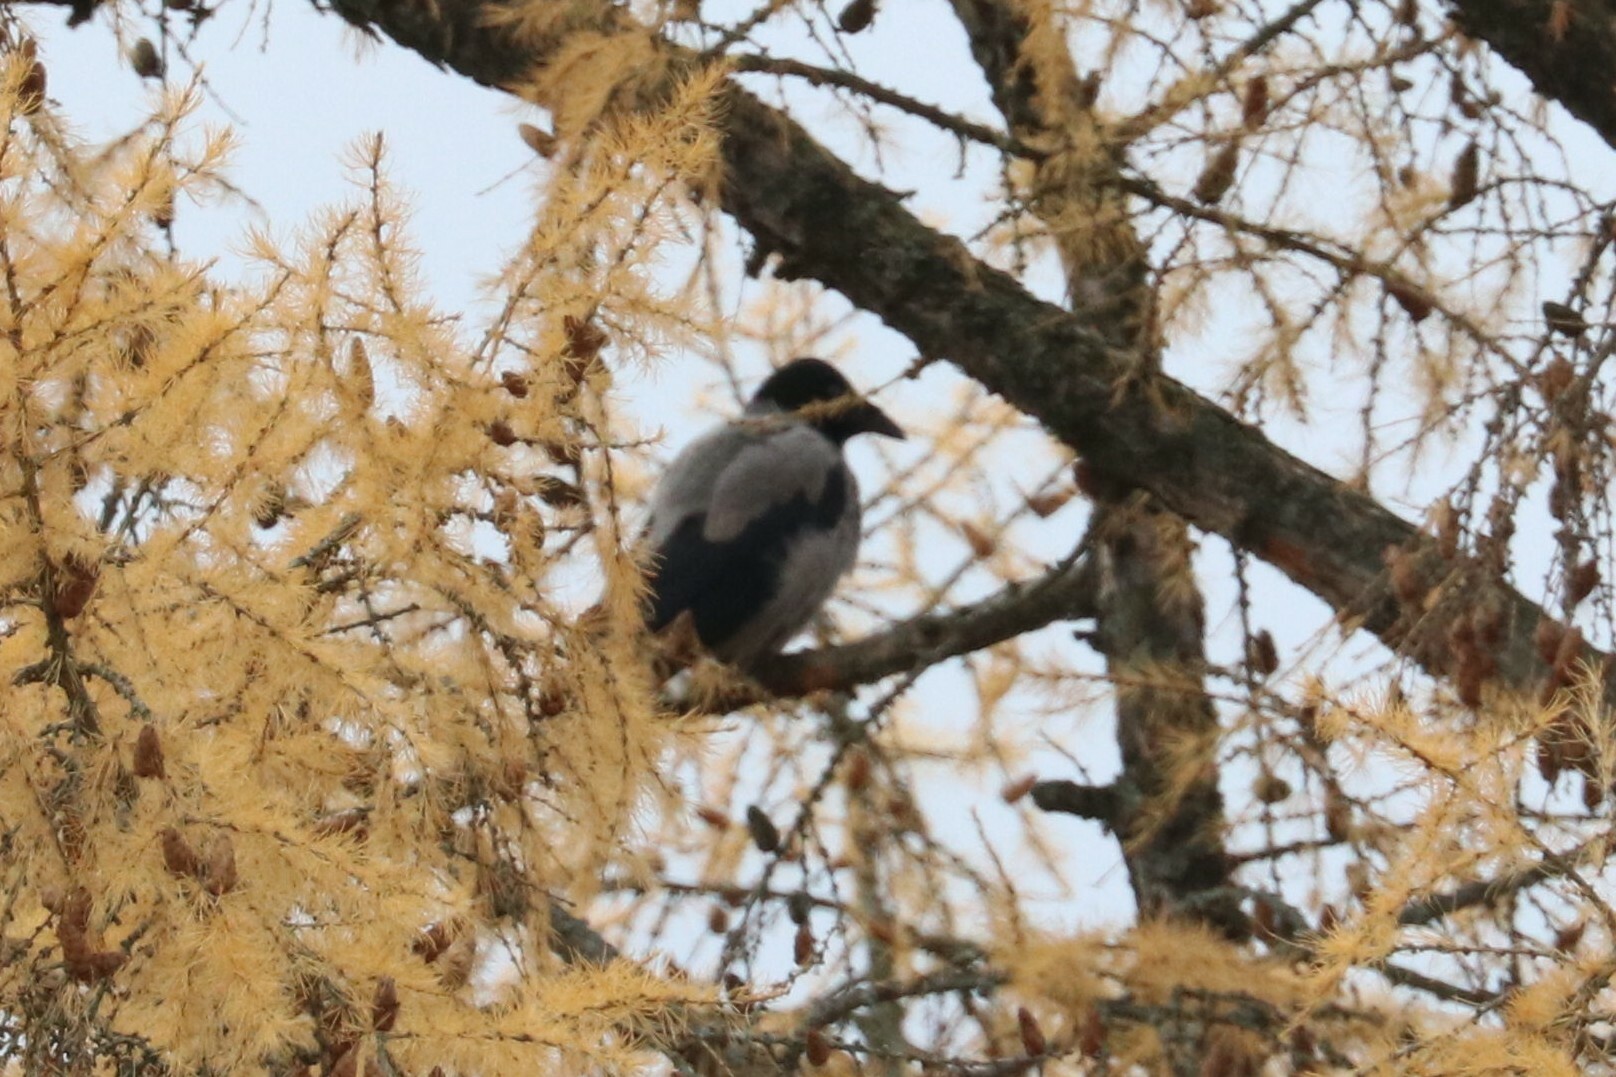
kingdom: Animalia
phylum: Chordata
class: Aves
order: Passeriformes
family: Corvidae
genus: Corvus
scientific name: Corvus cornix
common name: Hooded crow
